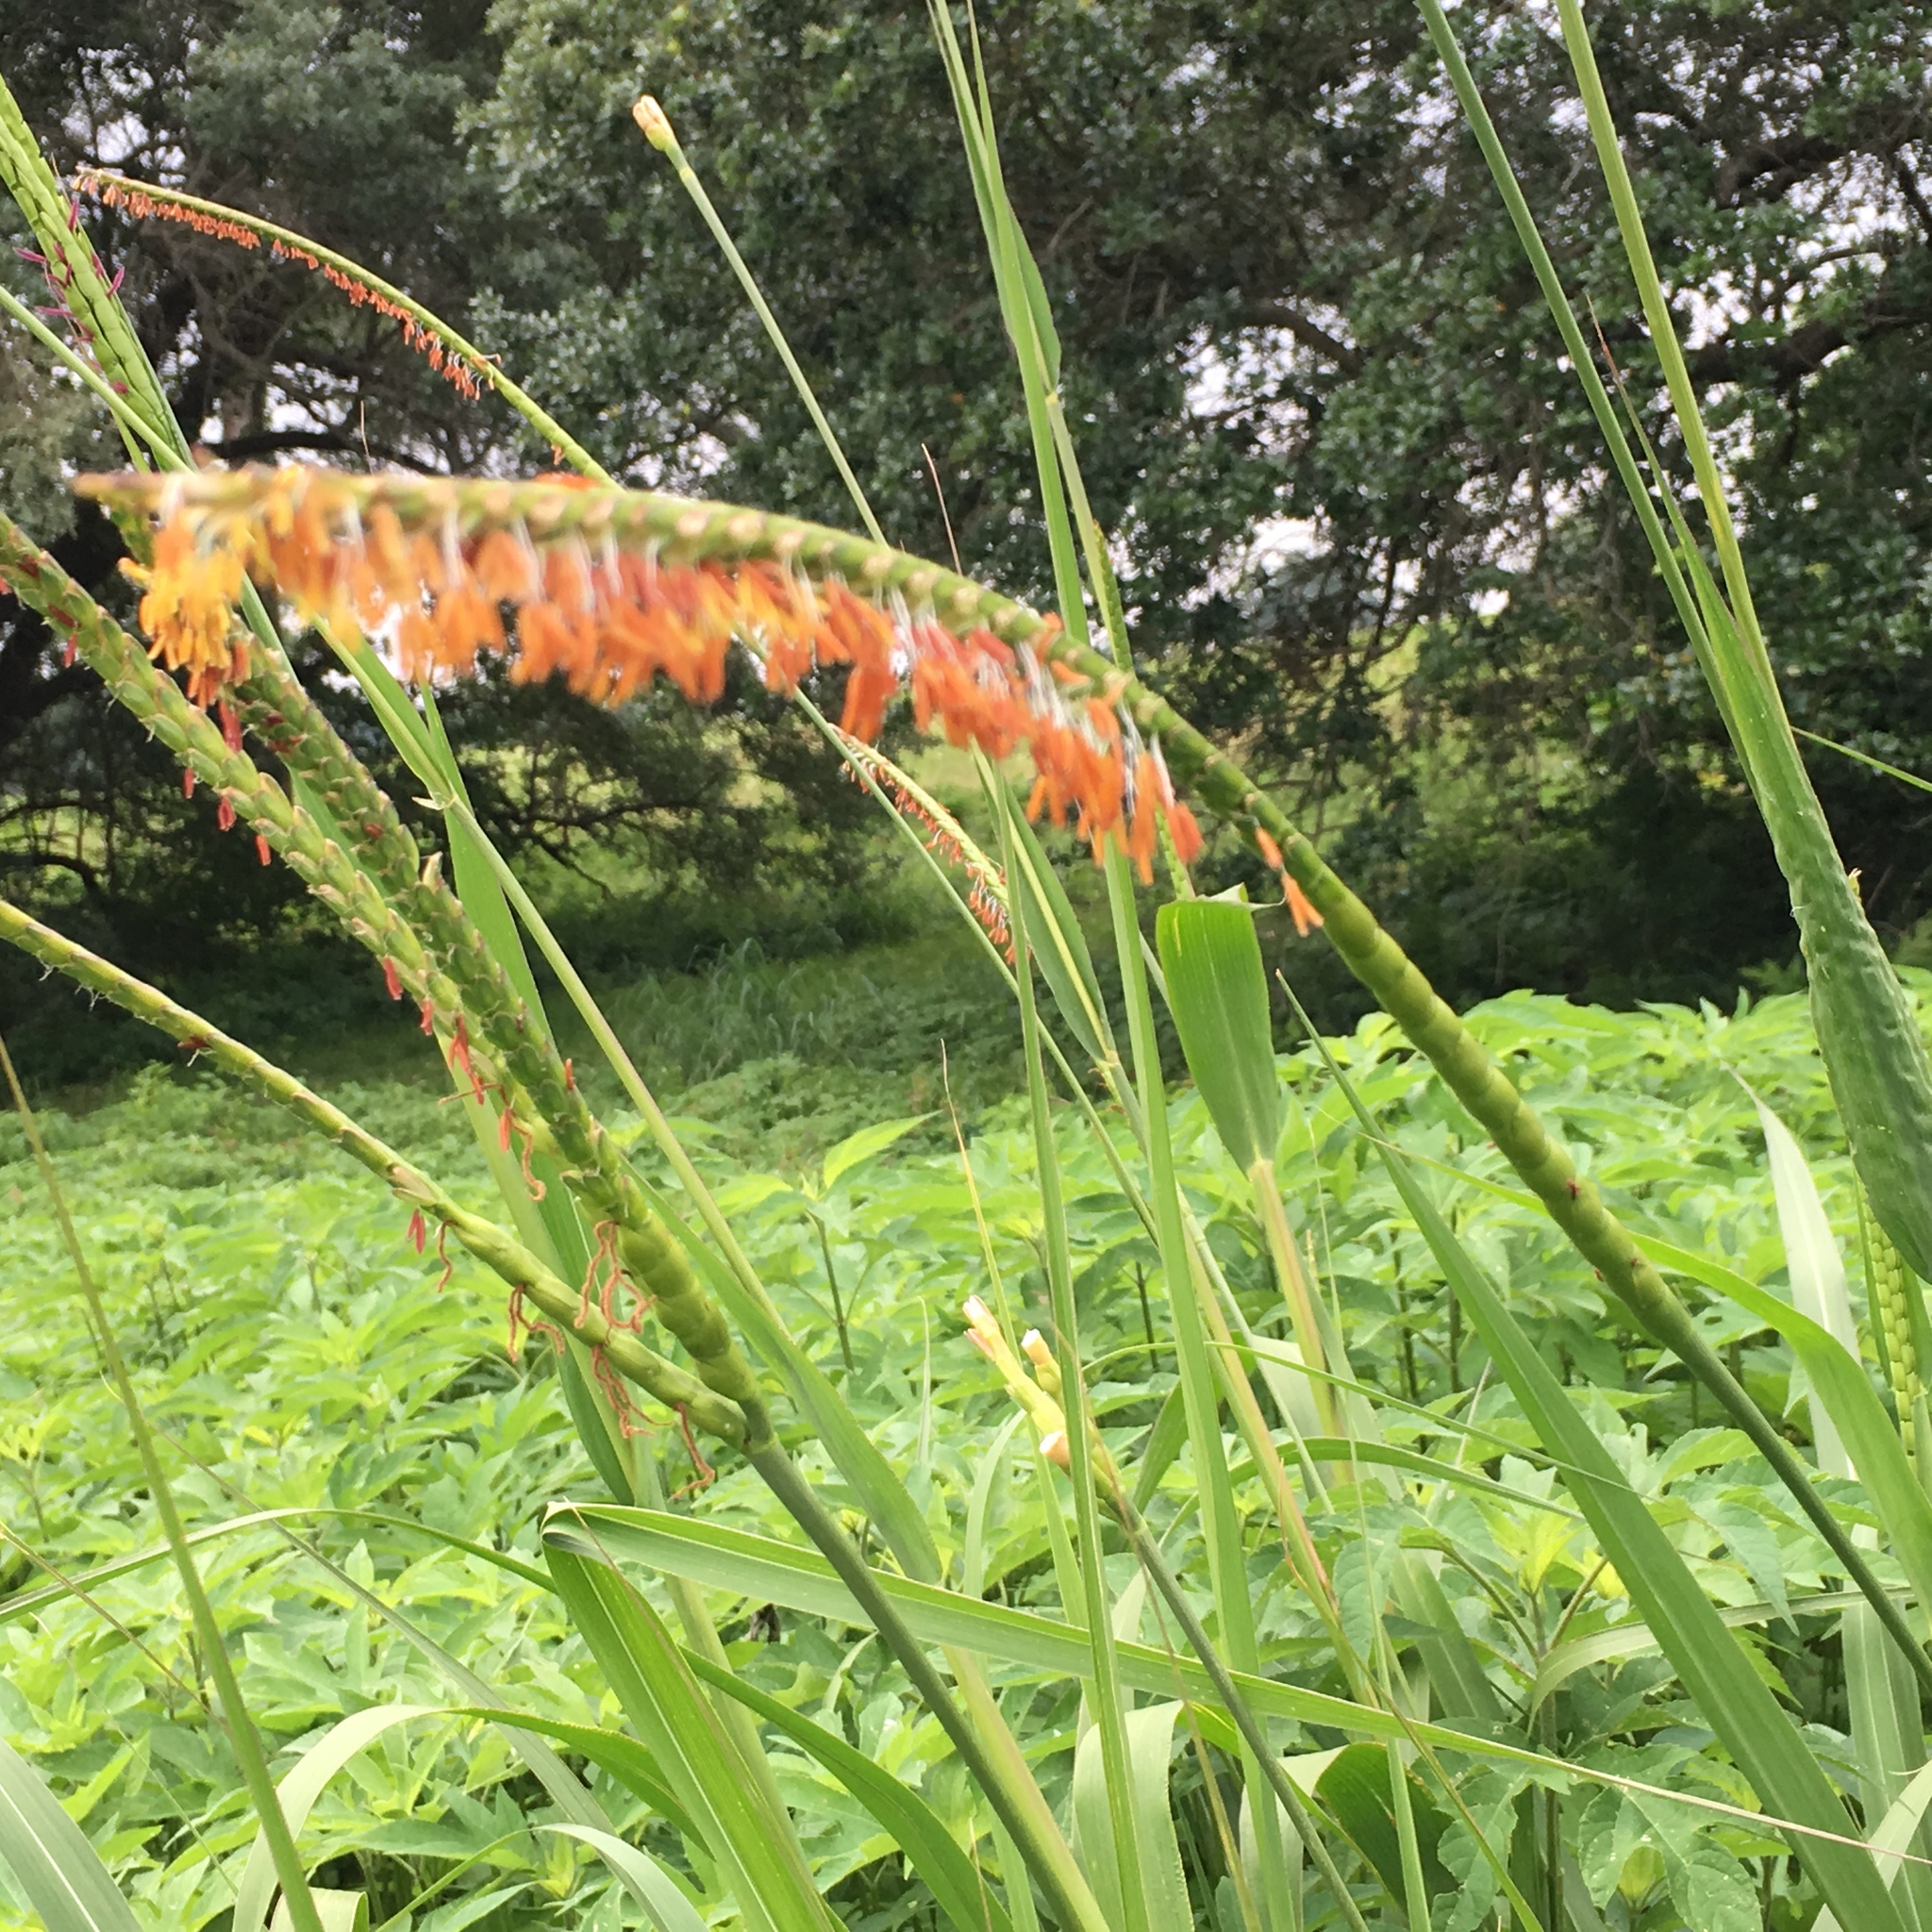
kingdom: Plantae
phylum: Tracheophyta
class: Liliopsida
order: Poales
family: Poaceae
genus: Tripsacum
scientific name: Tripsacum dactyloides
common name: Buffalo-grass
